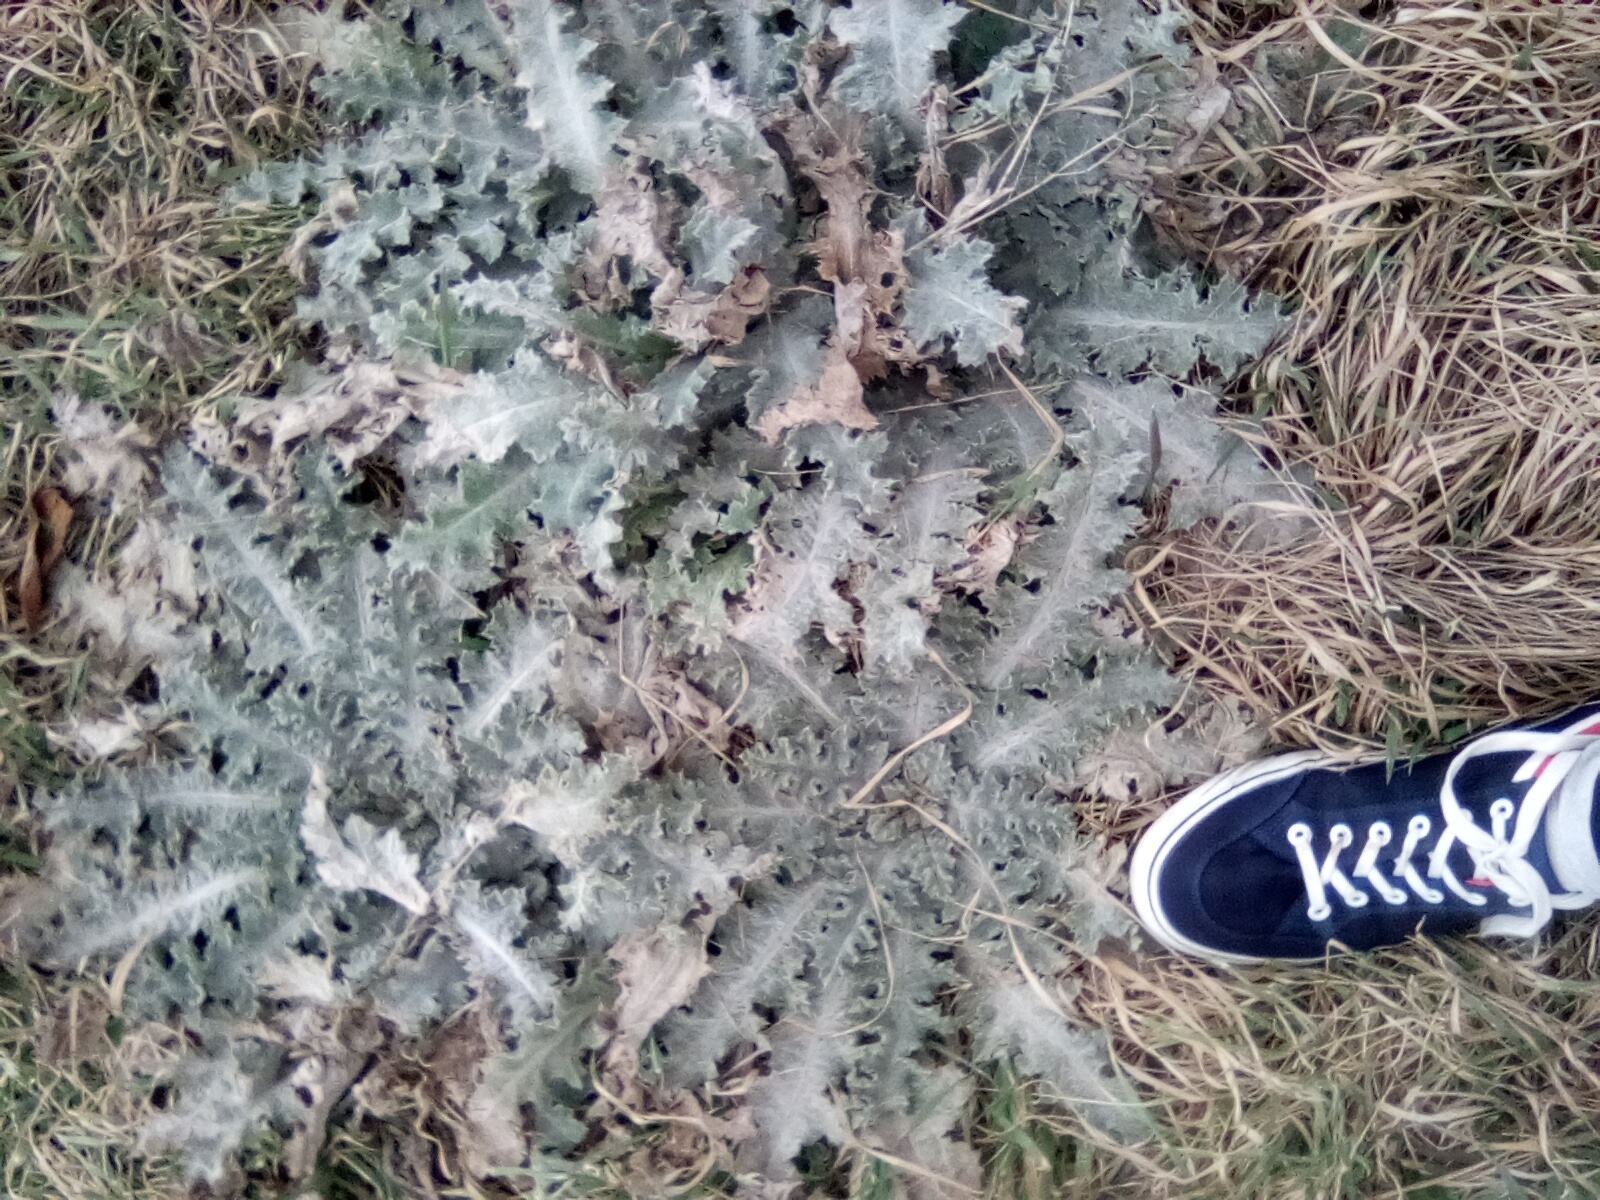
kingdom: Plantae
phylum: Tracheophyta
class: Magnoliopsida
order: Asterales
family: Asteraceae
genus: Onopordum
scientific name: Onopordum acanthium
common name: Scotch thistle
